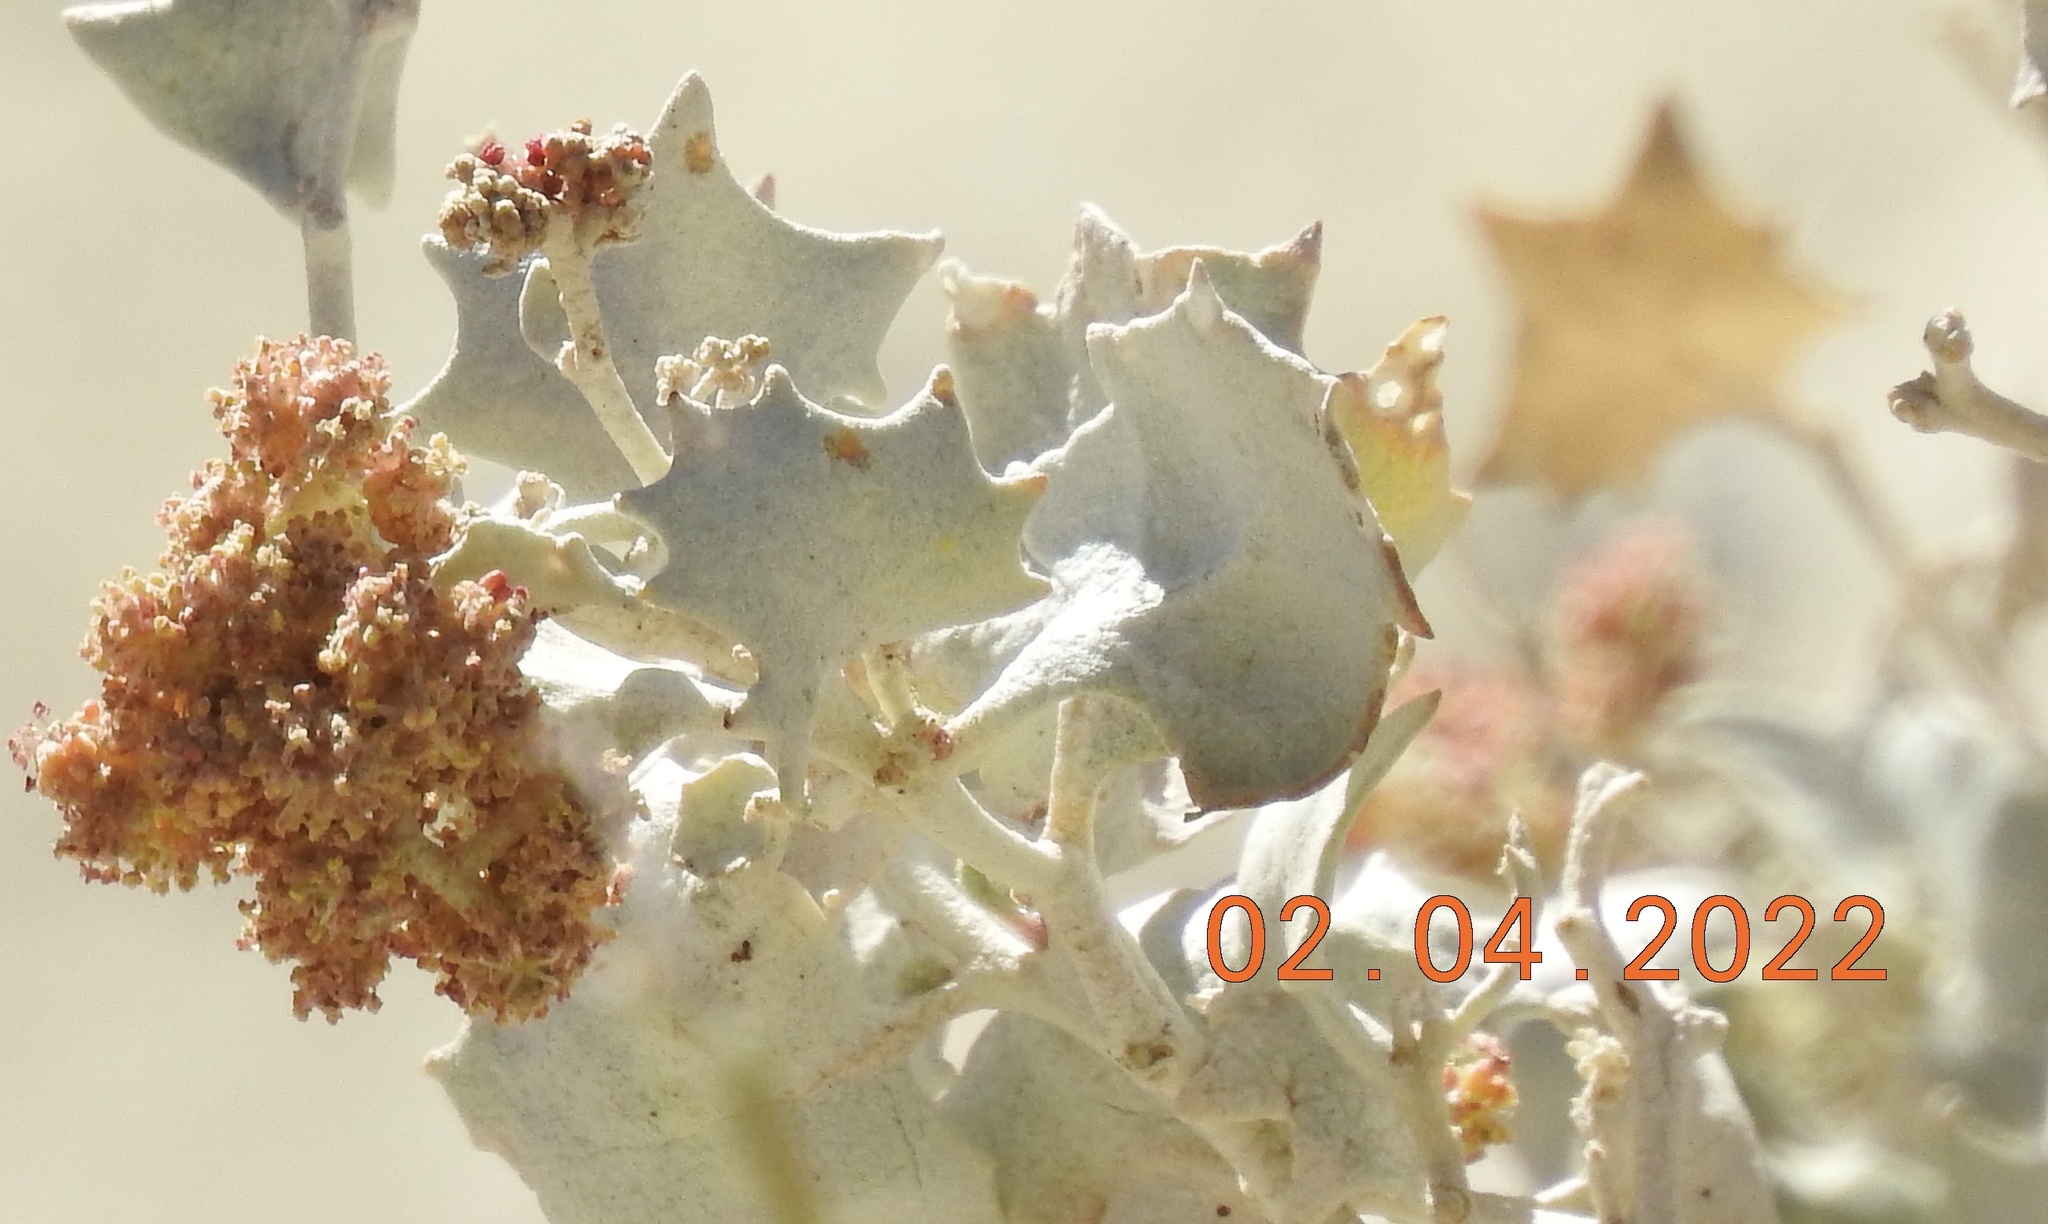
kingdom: Plantae
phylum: Tracheophyta
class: Magnoliopsida
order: Caryophyllales
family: Amaranthaceae
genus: Atriplex
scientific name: Atriplex hymenelytra
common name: Desert-holly
